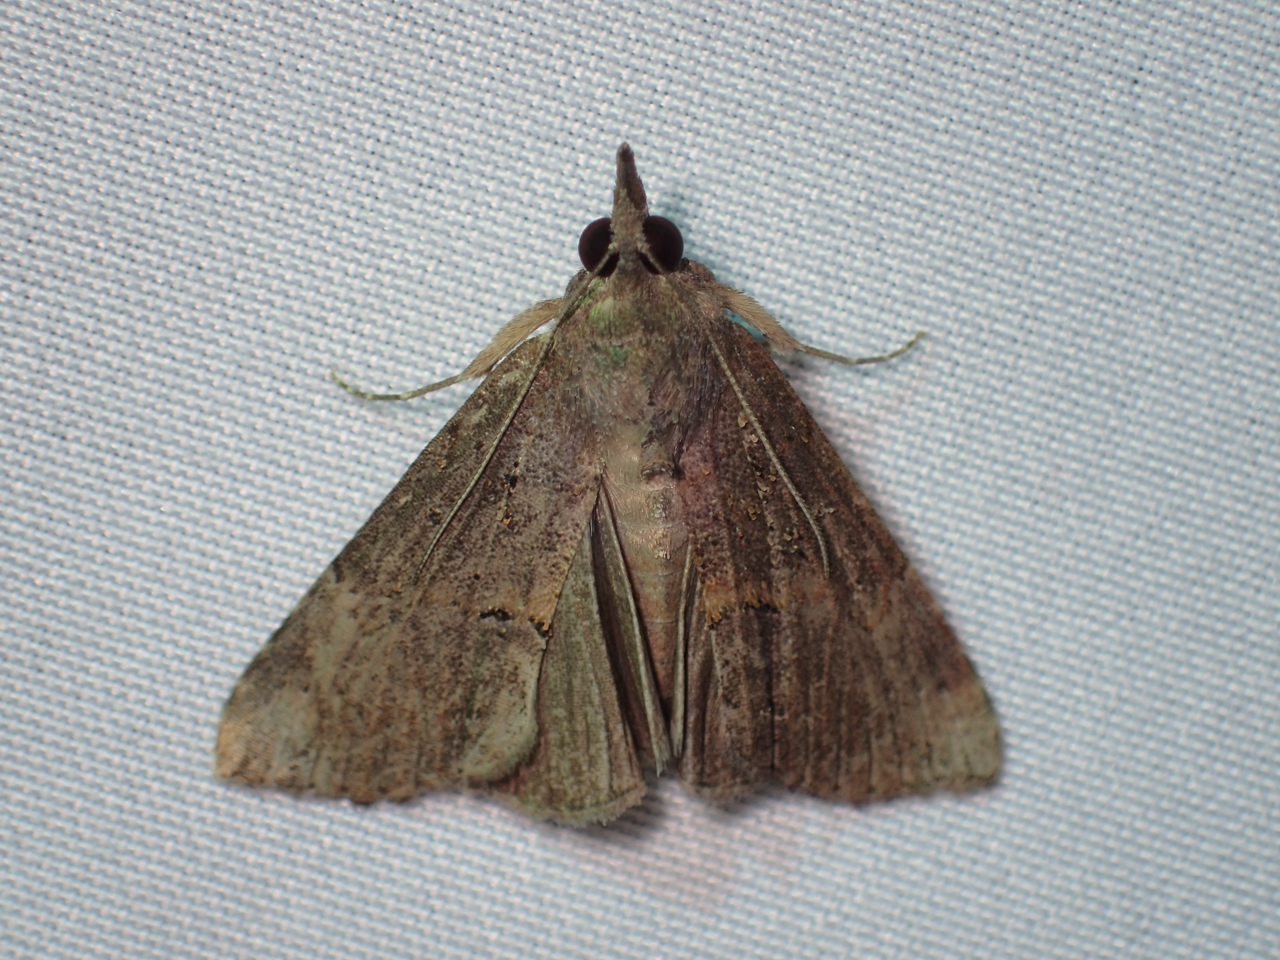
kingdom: Animalia
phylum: Arthropoda
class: Insecta
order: Lepidoptera
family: Erebidae
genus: Hypena
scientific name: Hypena scabra
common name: Green cloverworm
